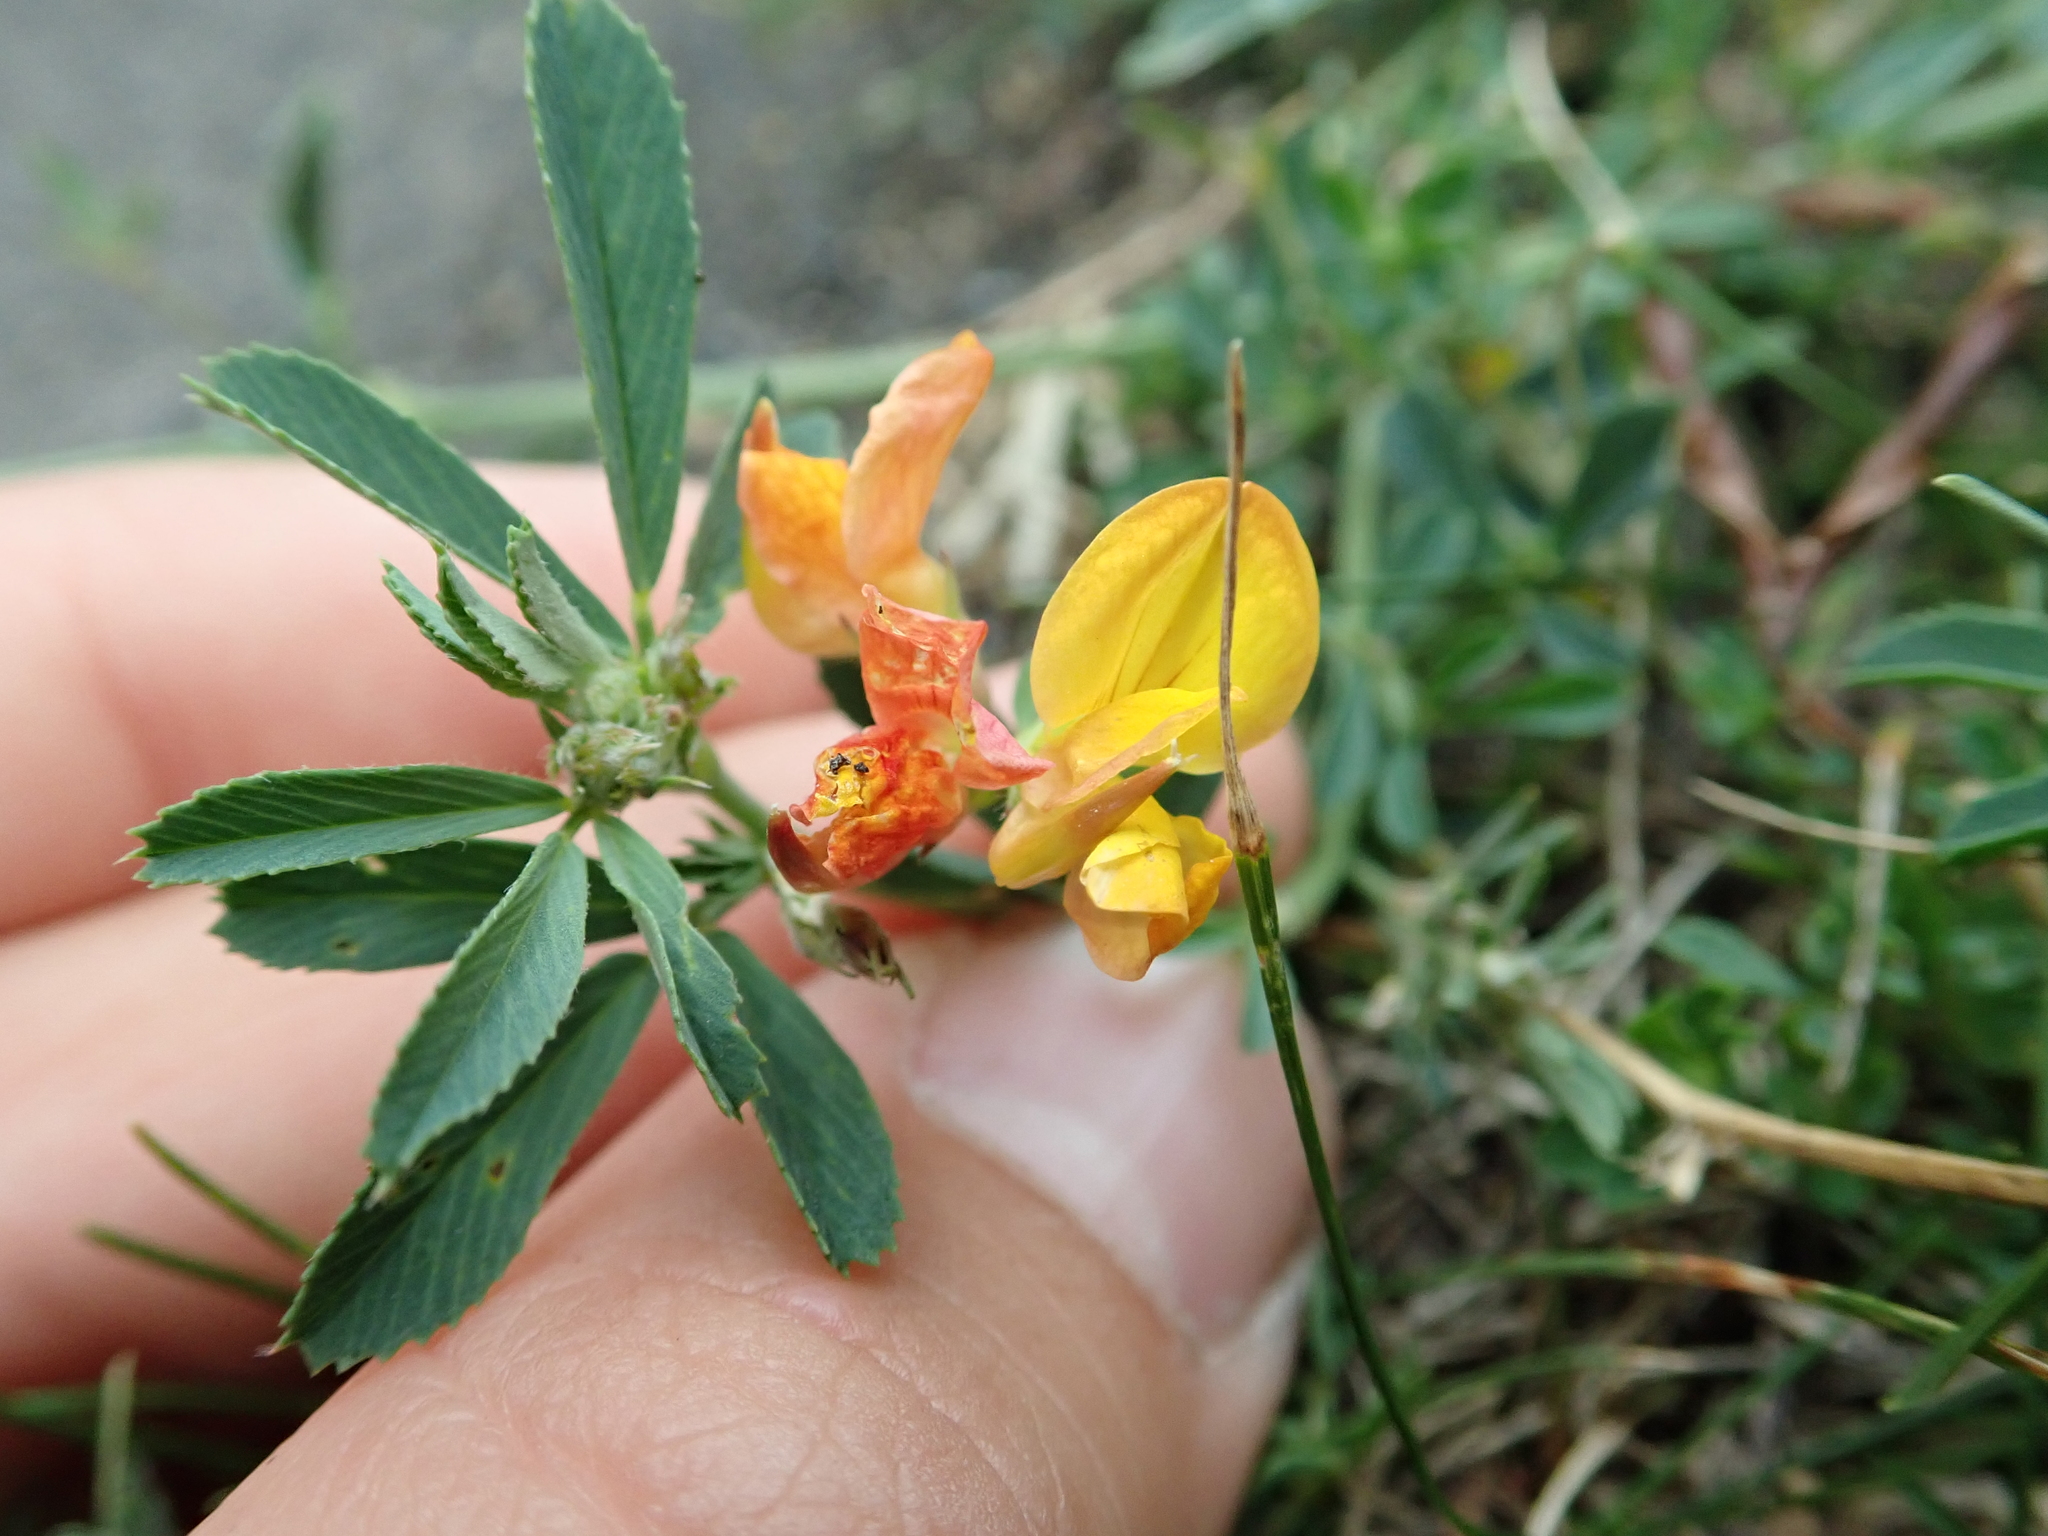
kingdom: Plantae
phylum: Tracheophyta
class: Magnoliopsida
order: Fabales
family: Fabaceae
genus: Lotus
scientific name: Lotus corniculatus
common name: Common bird's-foot-trefoil
